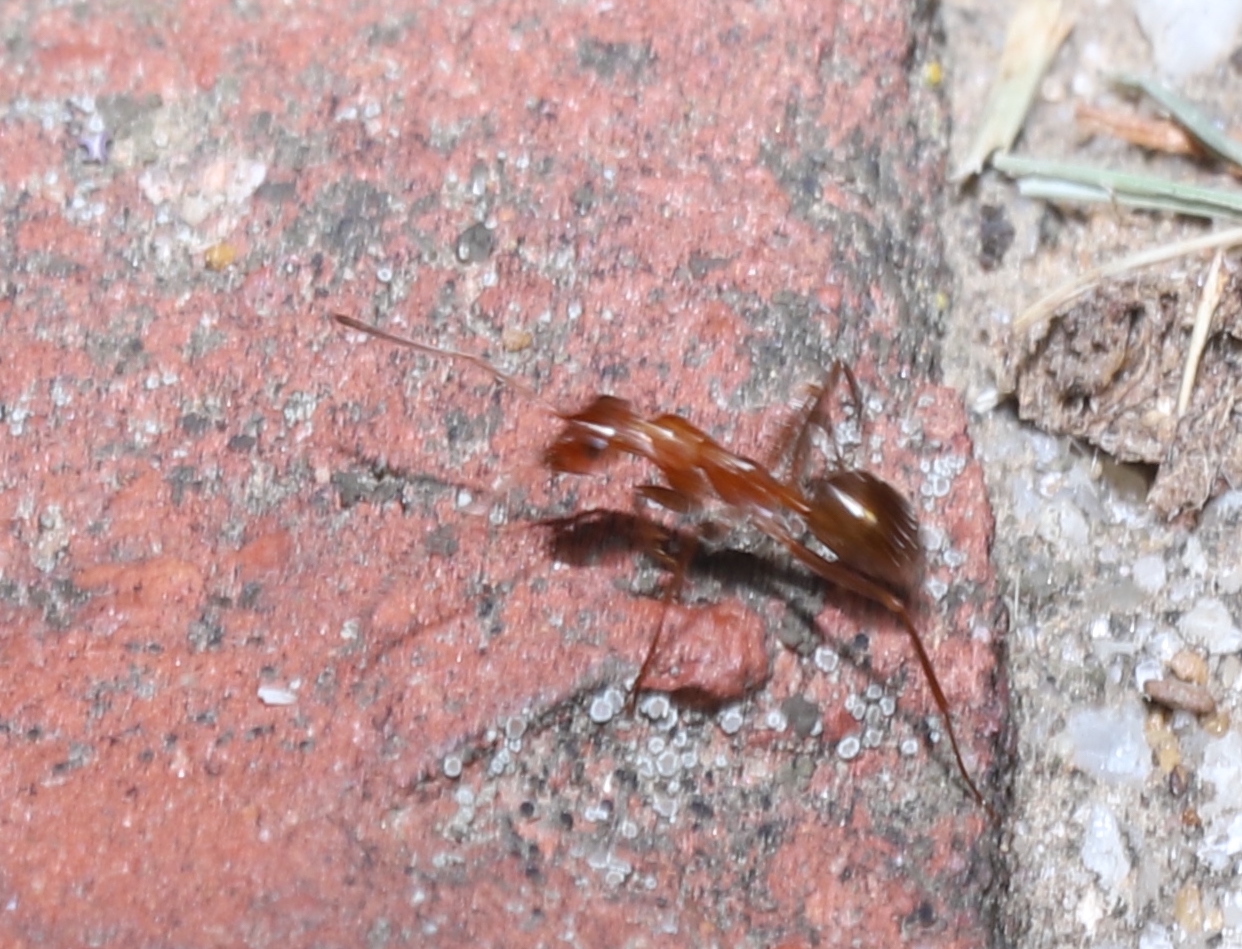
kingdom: Animalia
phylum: Arthropoda
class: Insecta
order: Hymenoptera
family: Formicidae
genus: Formica
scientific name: Formica
